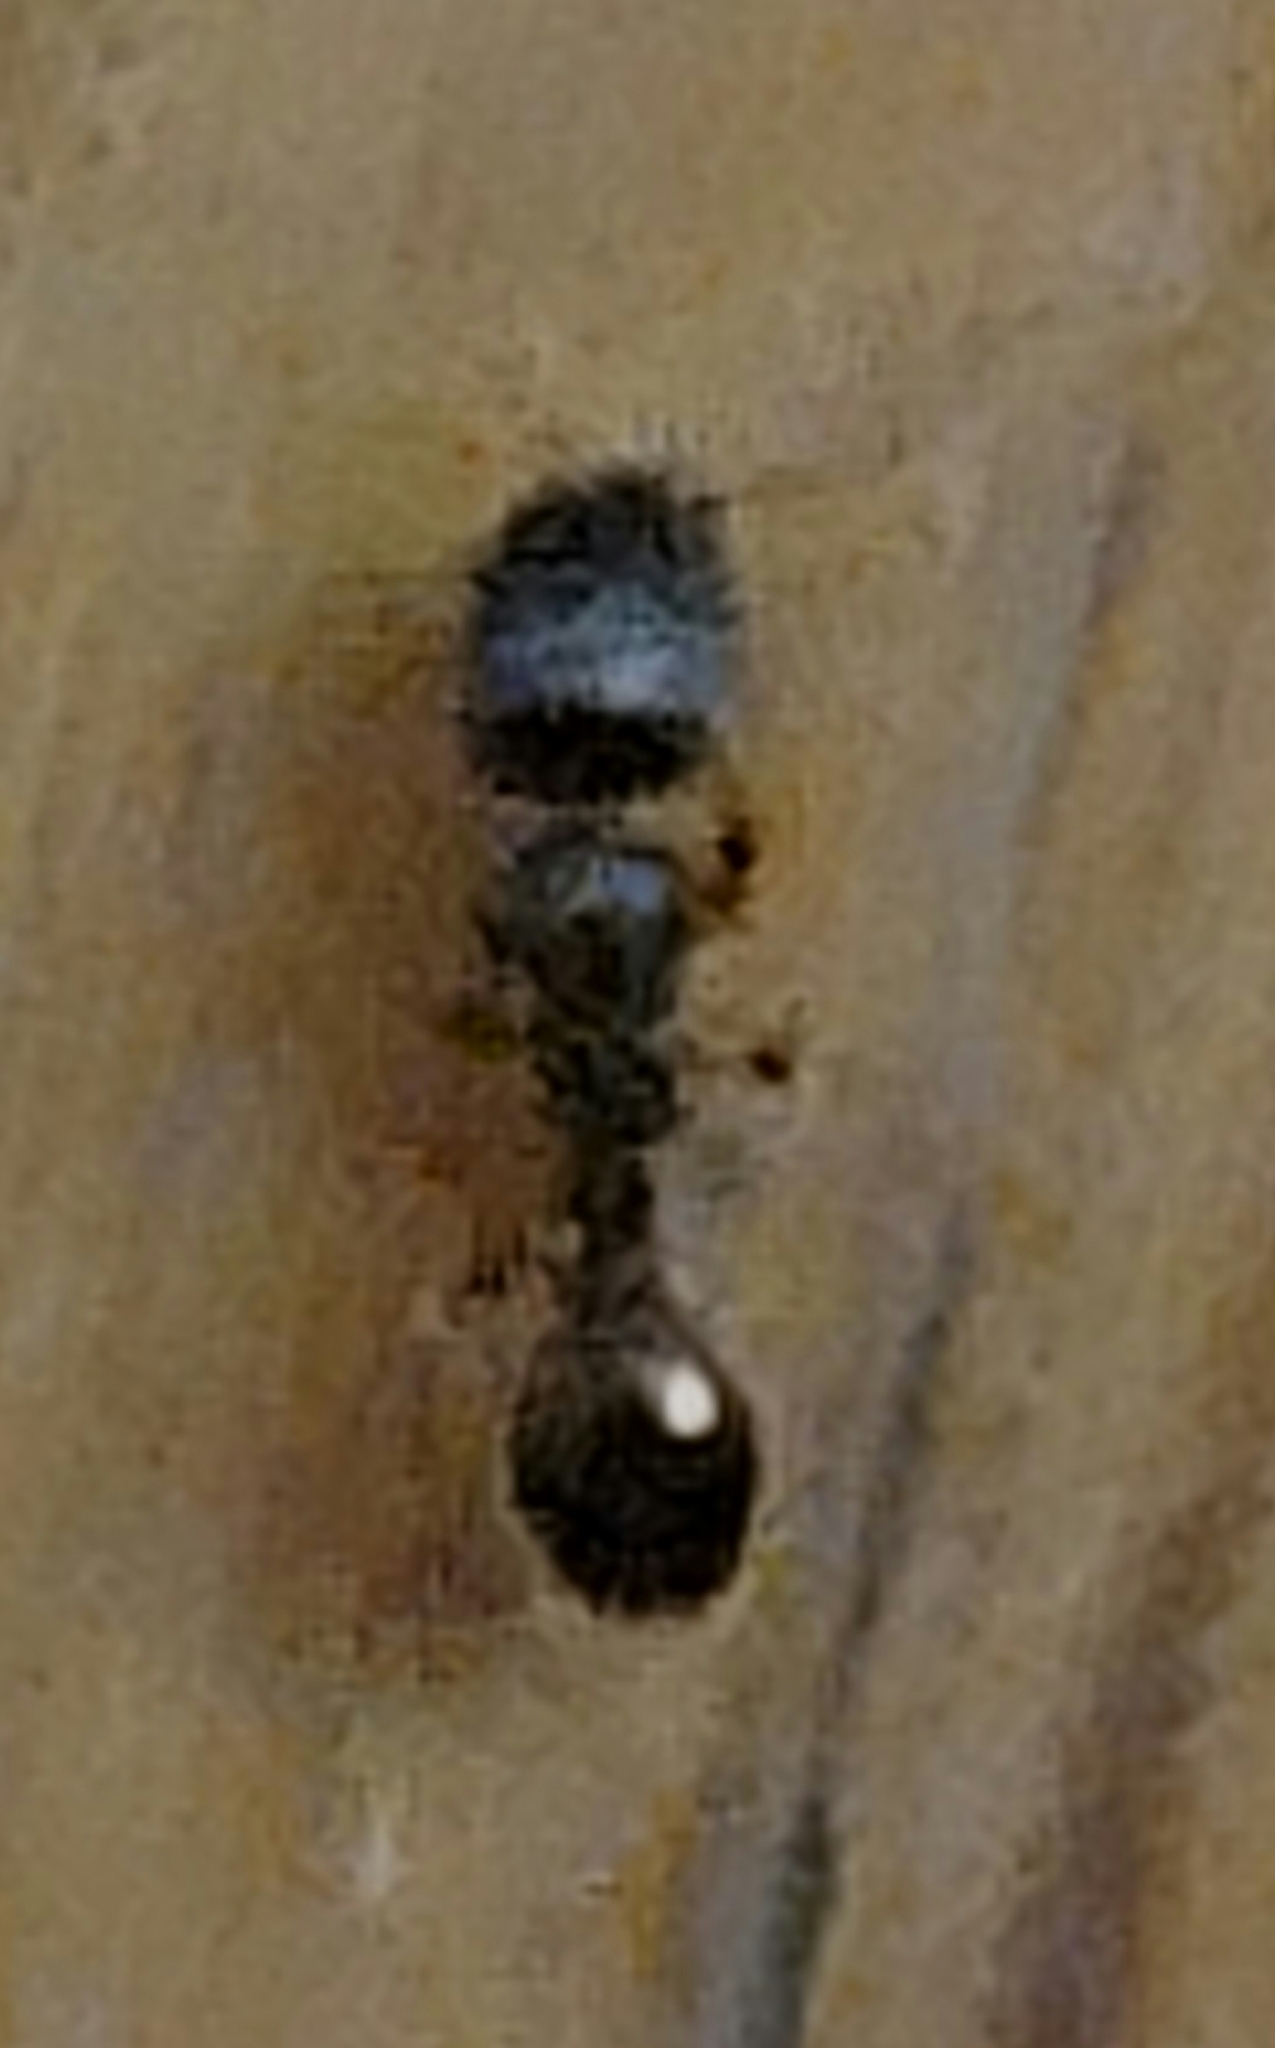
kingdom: Animalia
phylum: Arthropoda
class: Insecta
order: Hymenoptera
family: Formicidae
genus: Tetramorium
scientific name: Tetramorium immigrans
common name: Pavement ant
